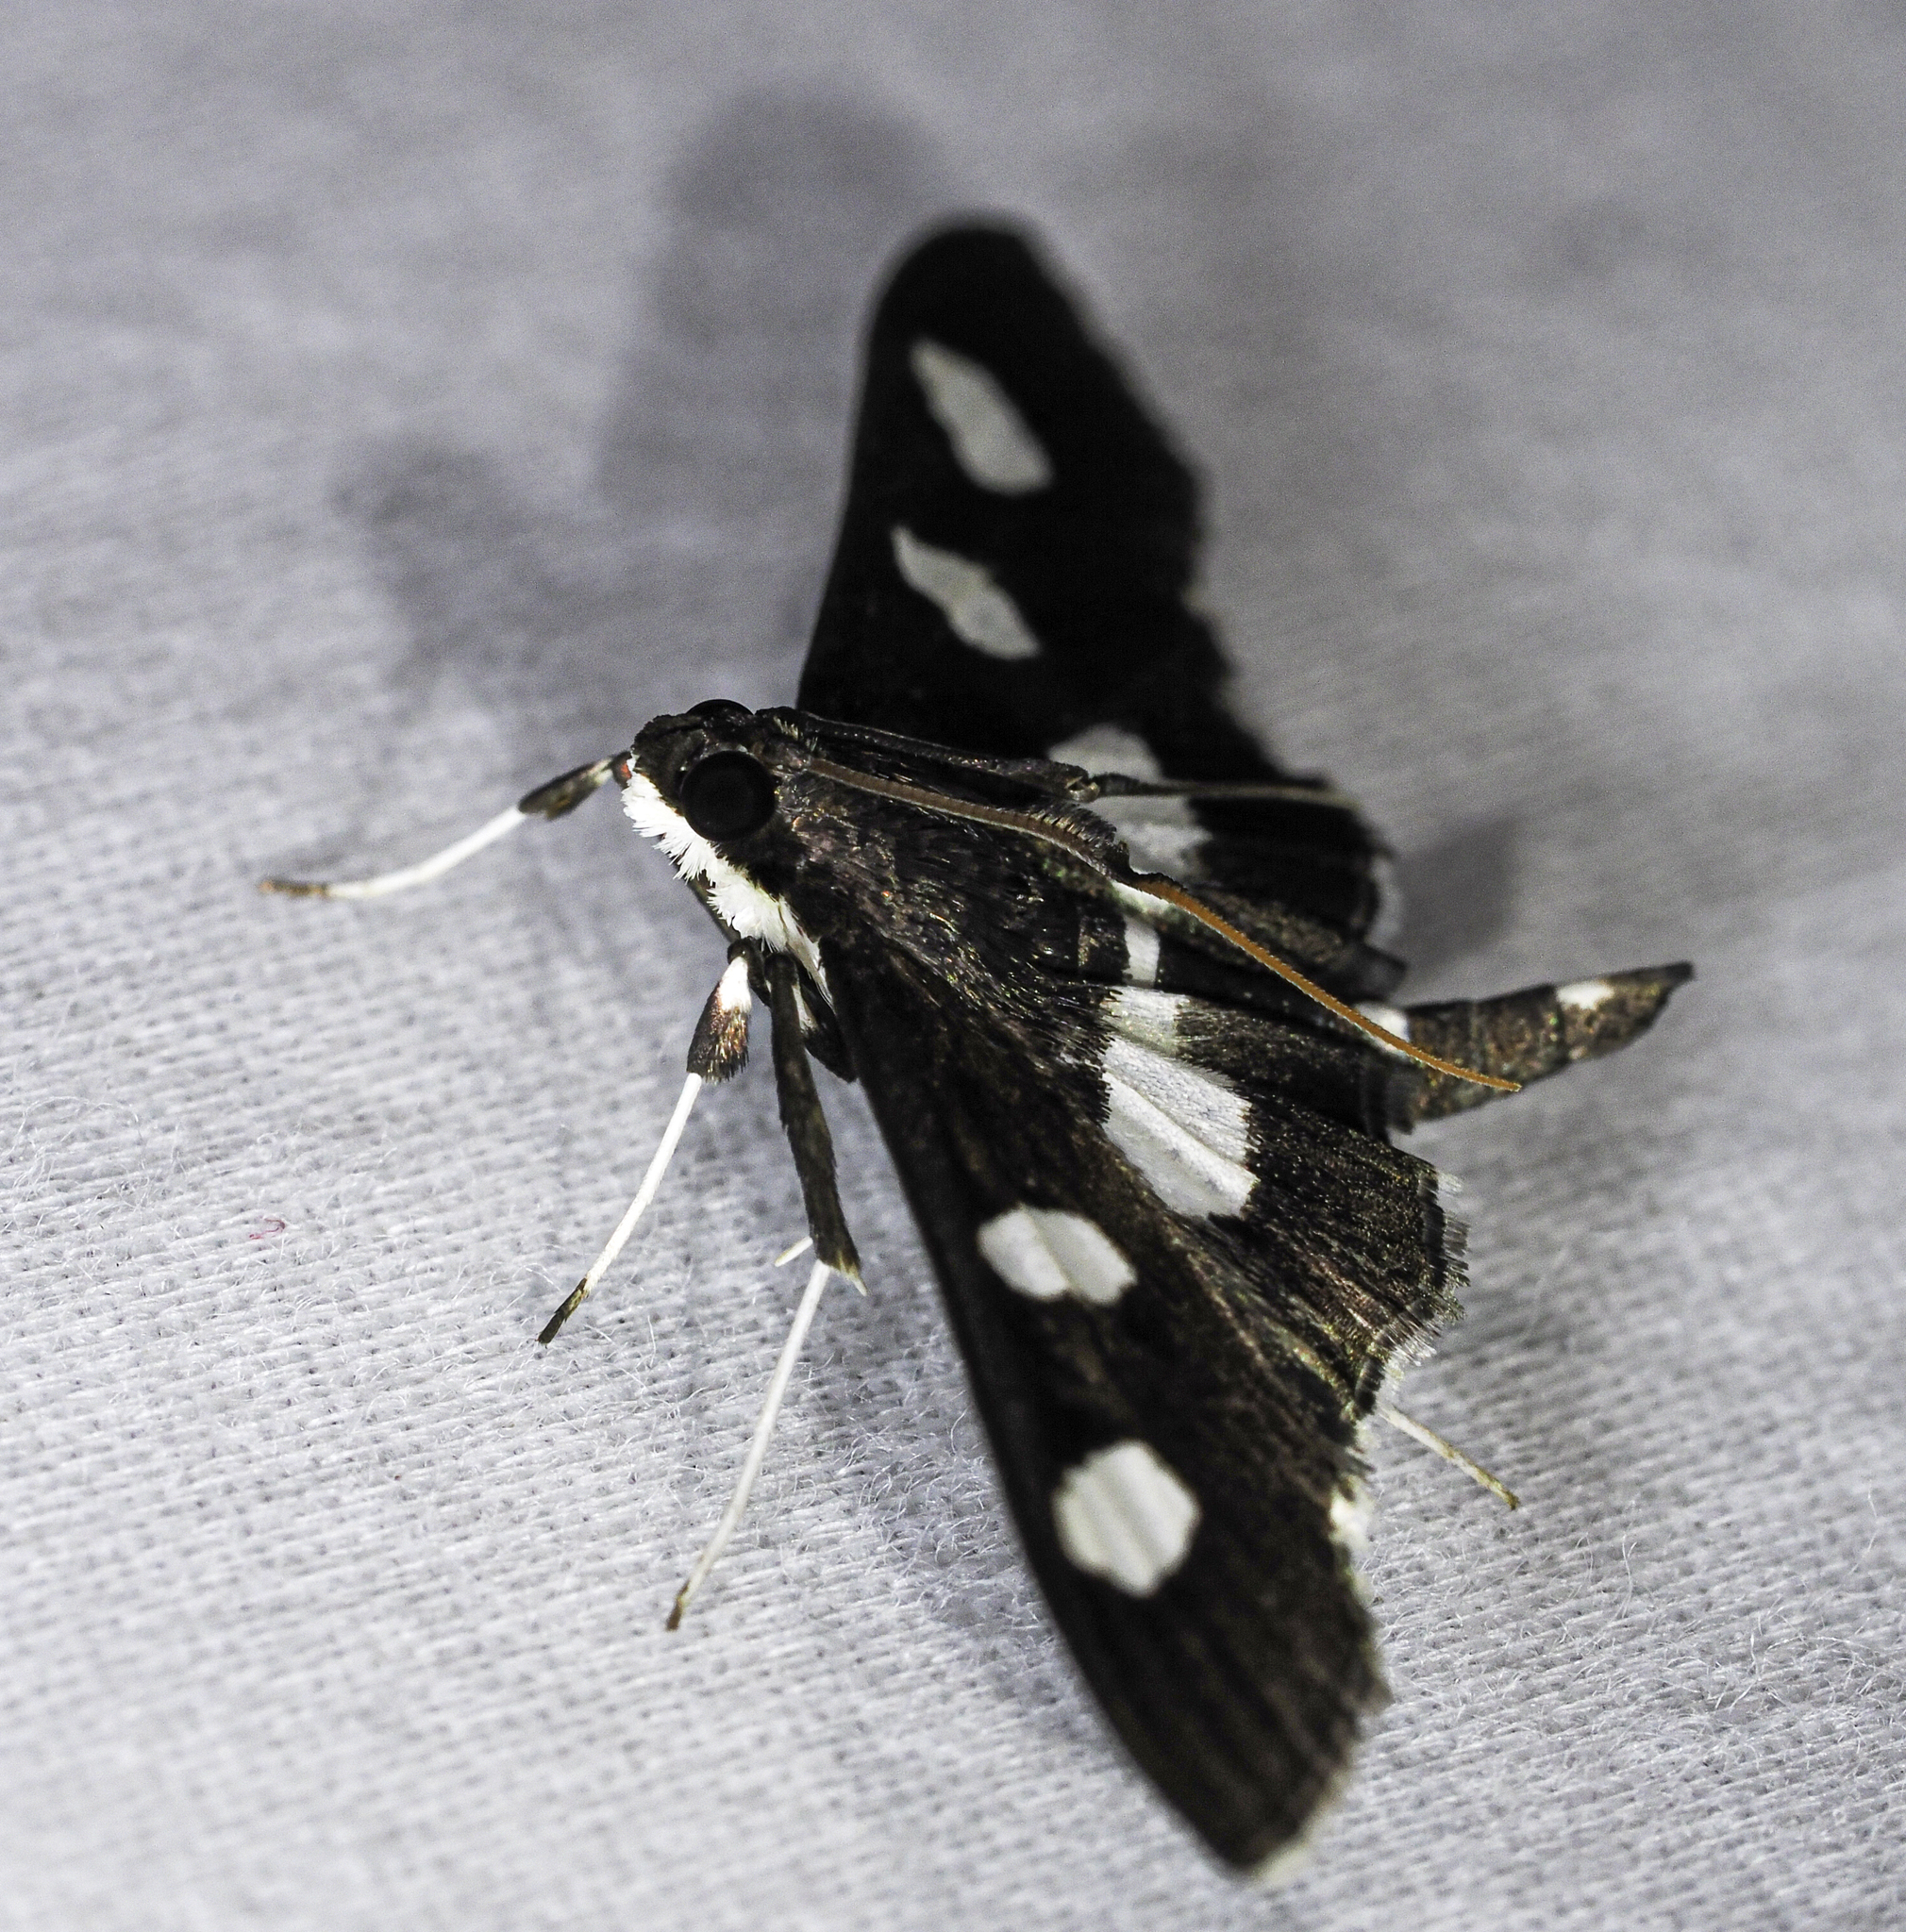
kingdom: Animalia
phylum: Arthropoda
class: Insecta
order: Lepidoptera
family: Crambidae
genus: Desmia
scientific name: Desmia
